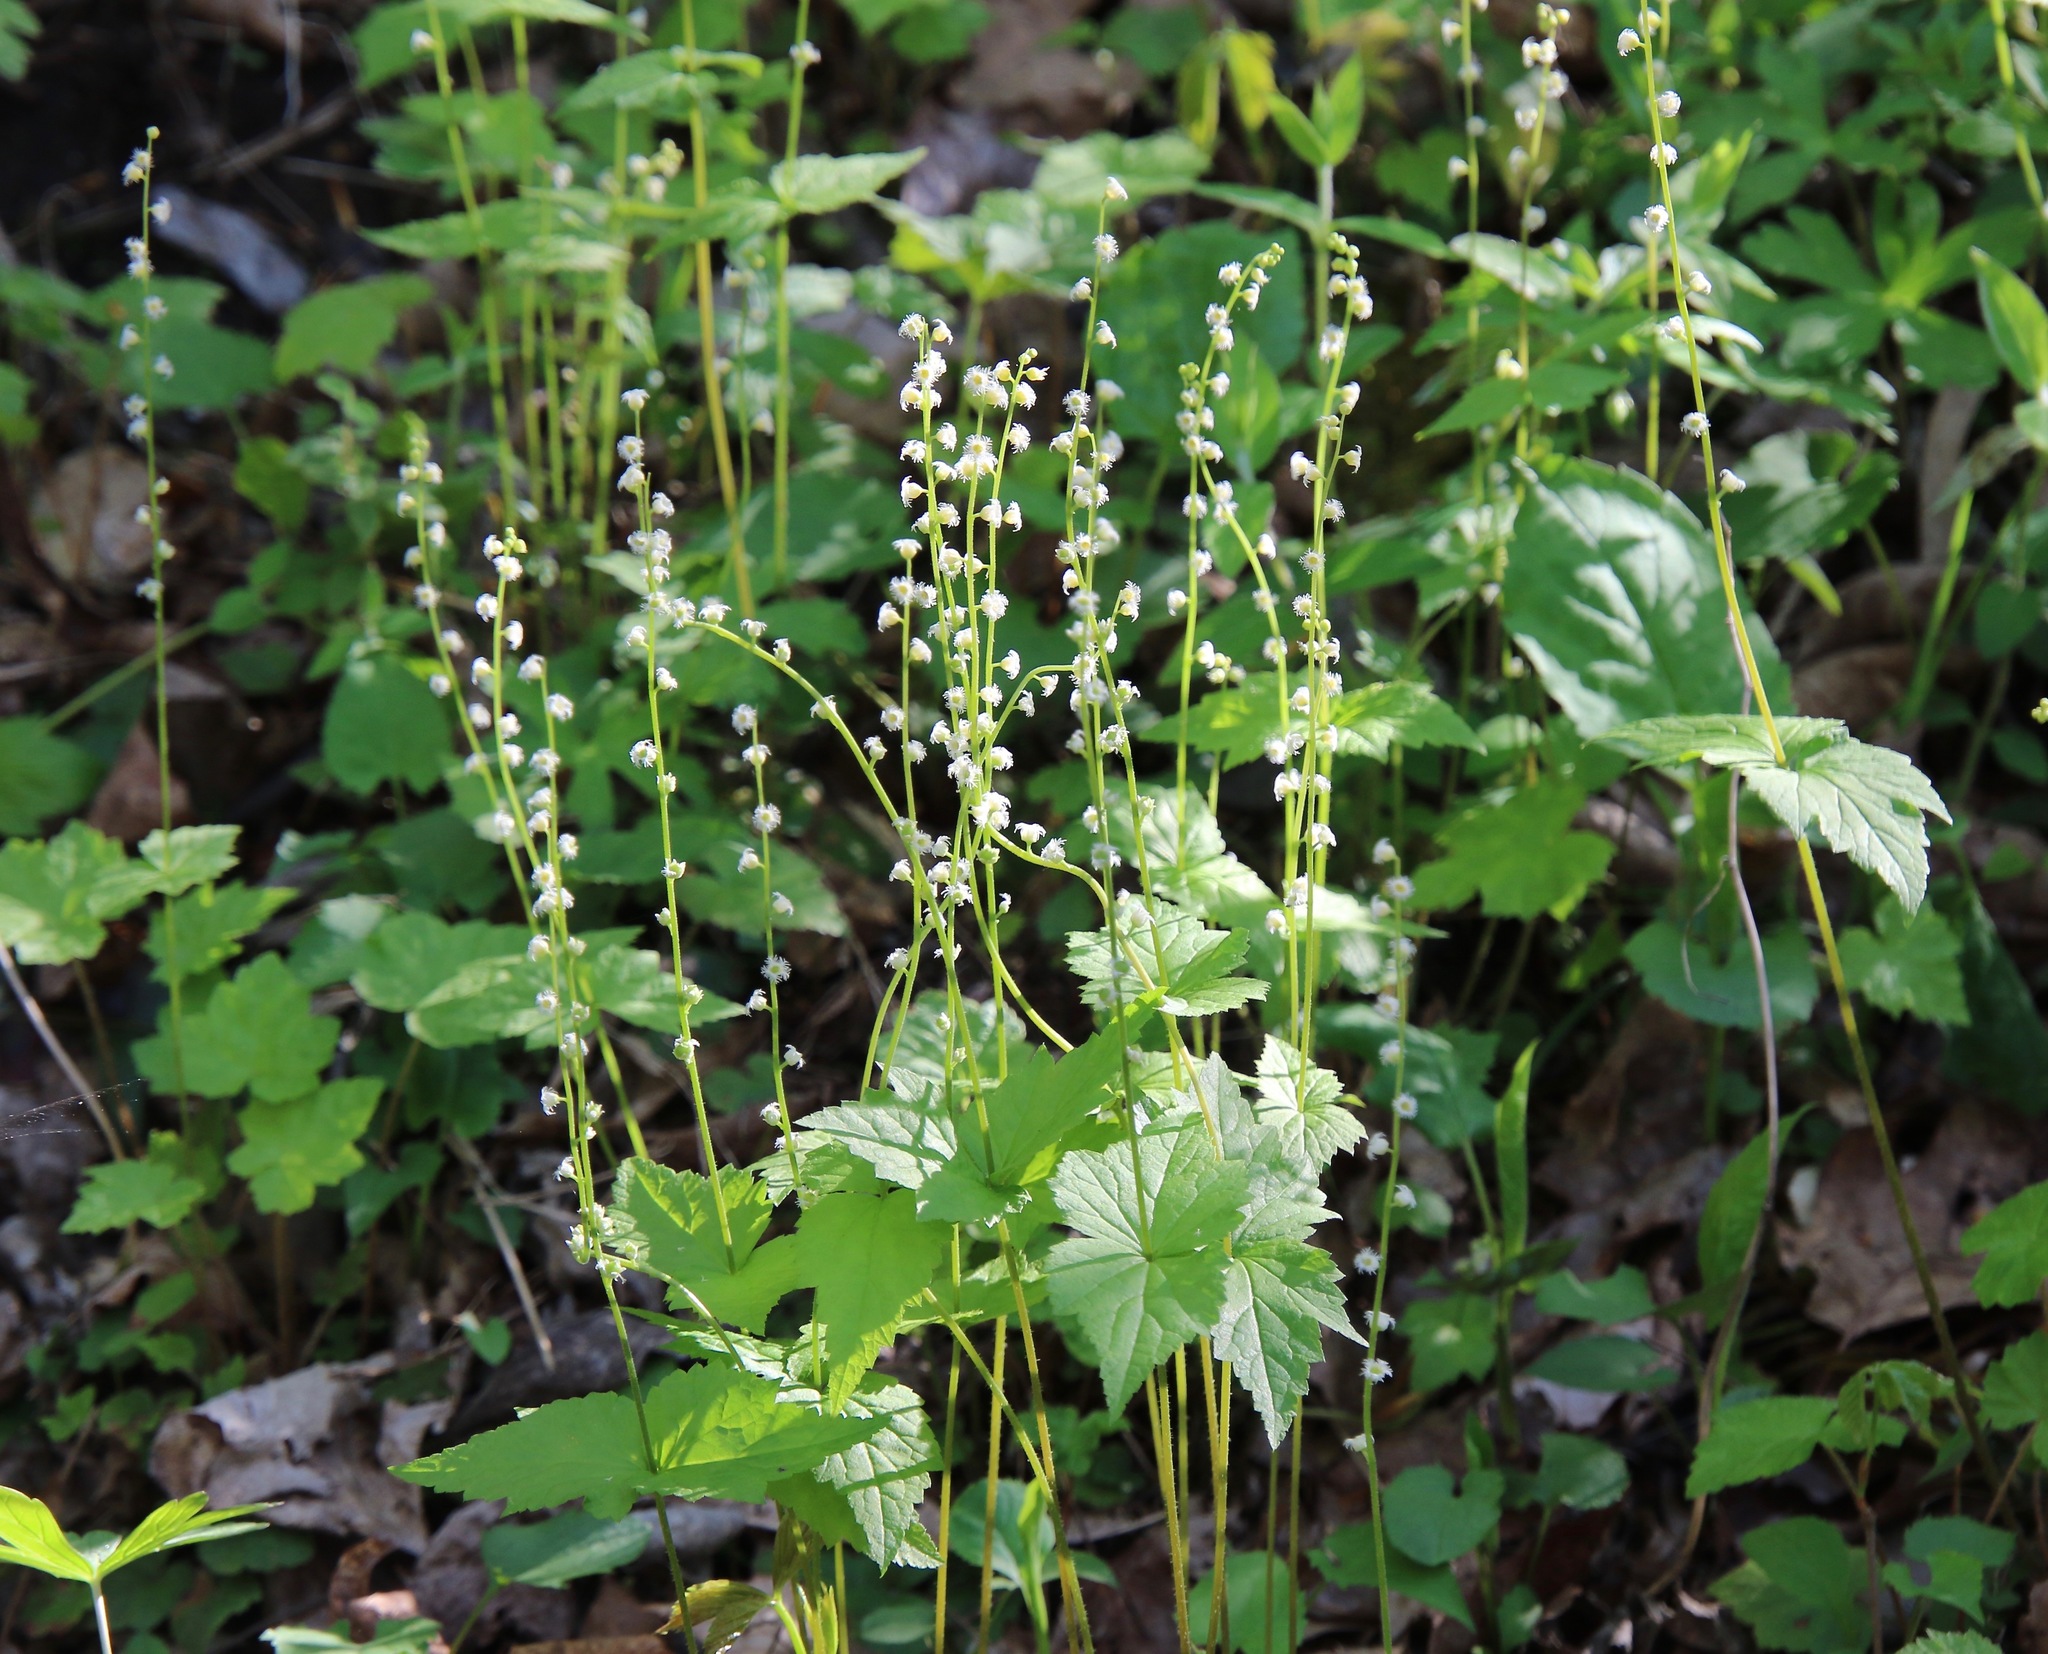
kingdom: Plantae
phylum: Tracheophyta
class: Magnoliopsida
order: Saxifragales
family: Saxifragaceae
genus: Mitella
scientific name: Mitella diphylla
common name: Coolwort
